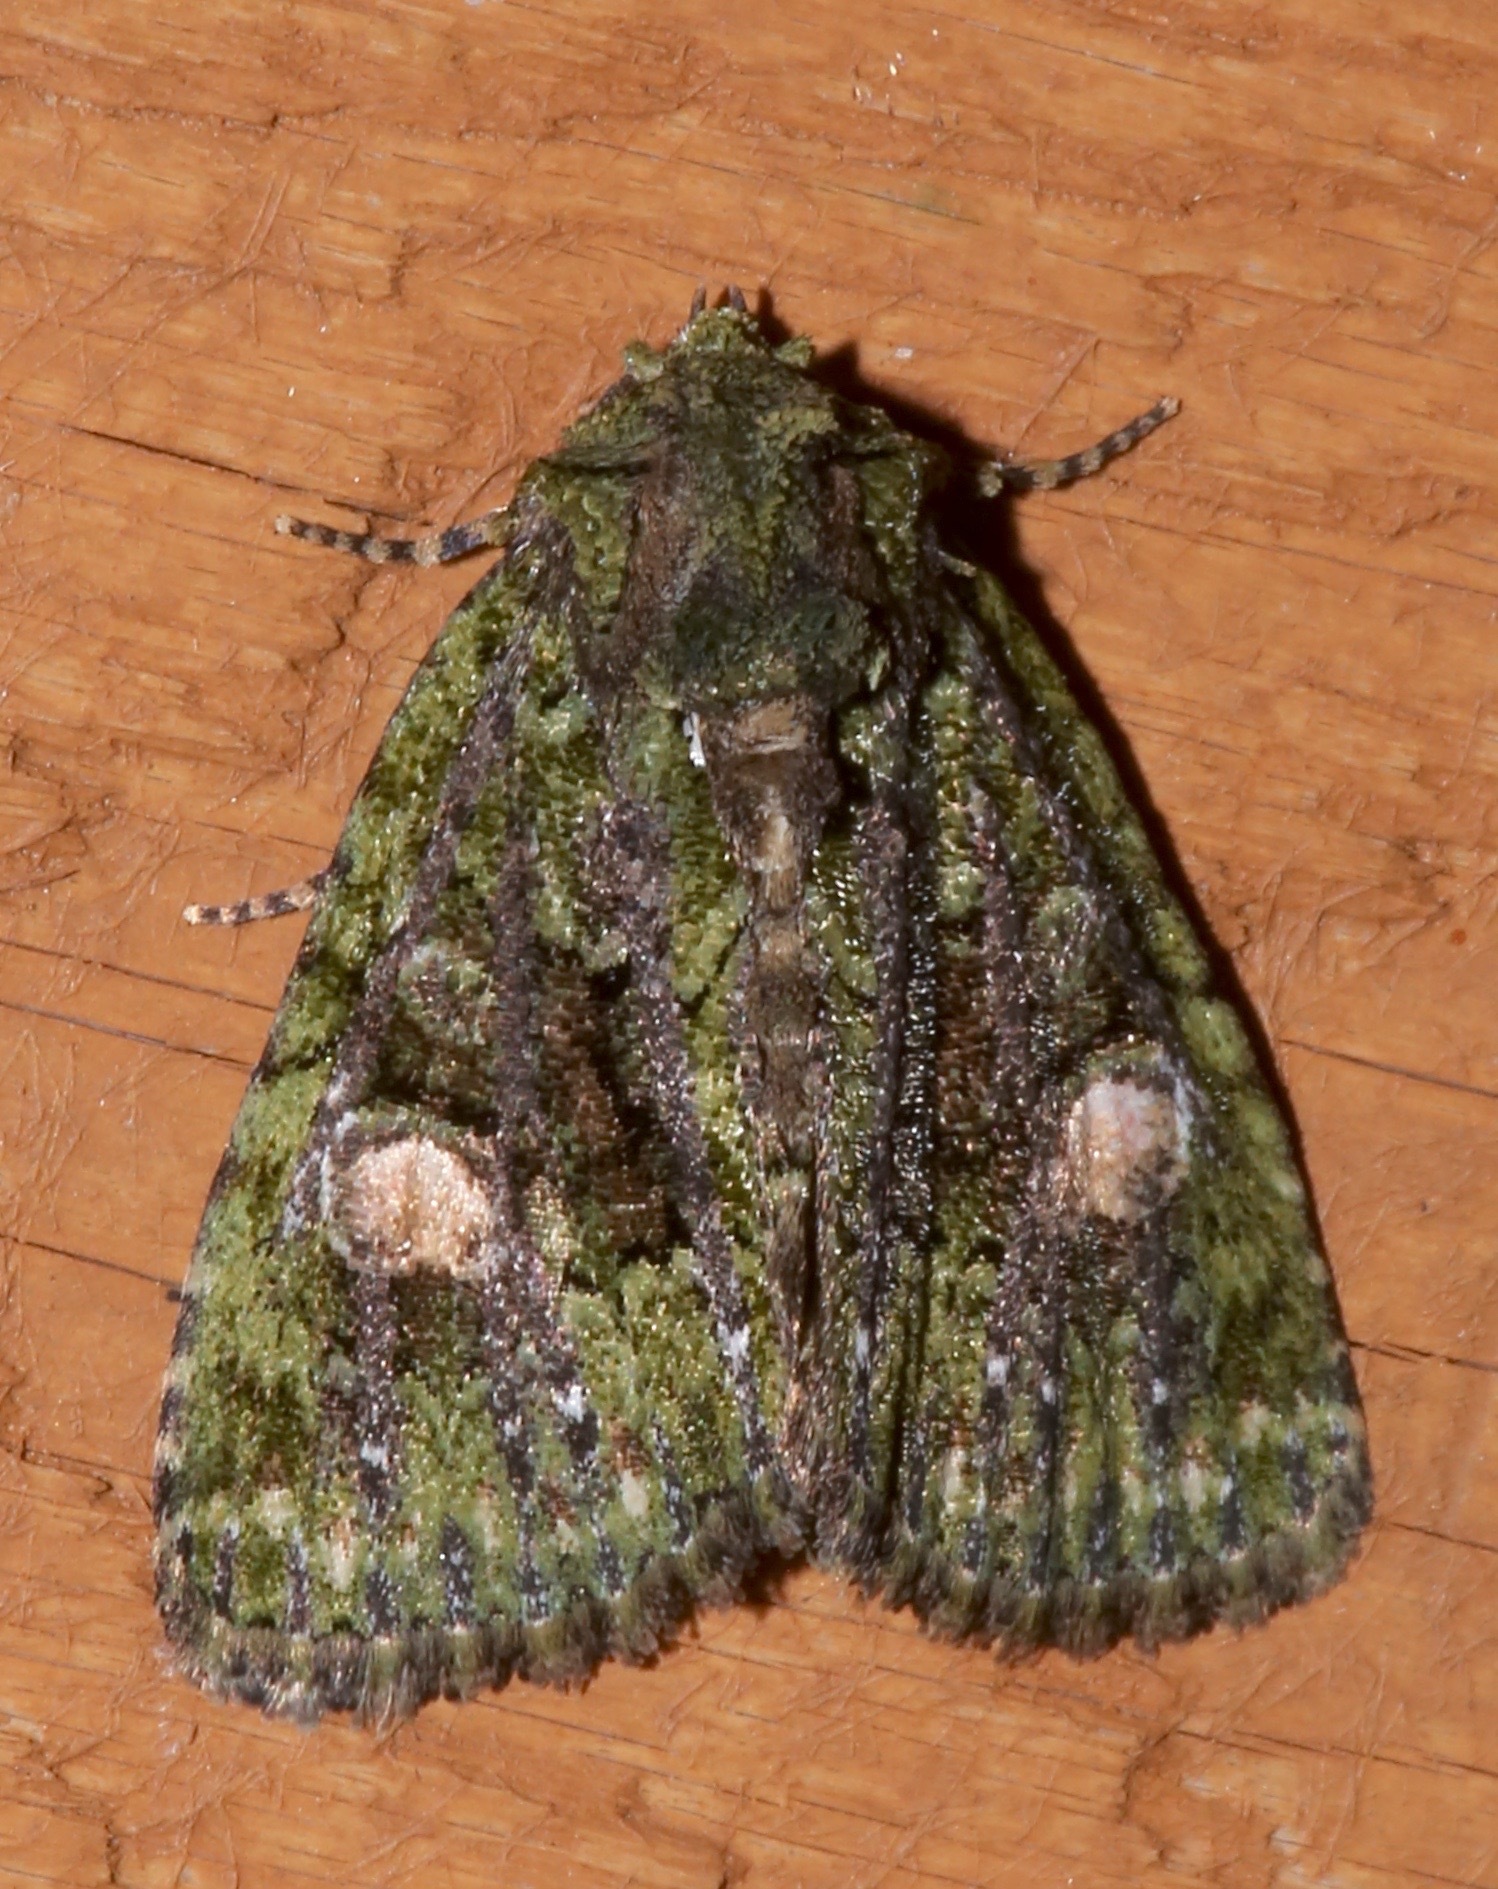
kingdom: Animalia
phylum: Arthropoda
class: Insecta
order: Lepidoptera
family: Noctuidae
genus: Phosphila
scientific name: Phosphila miselioides
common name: Spotted phosphila moth
